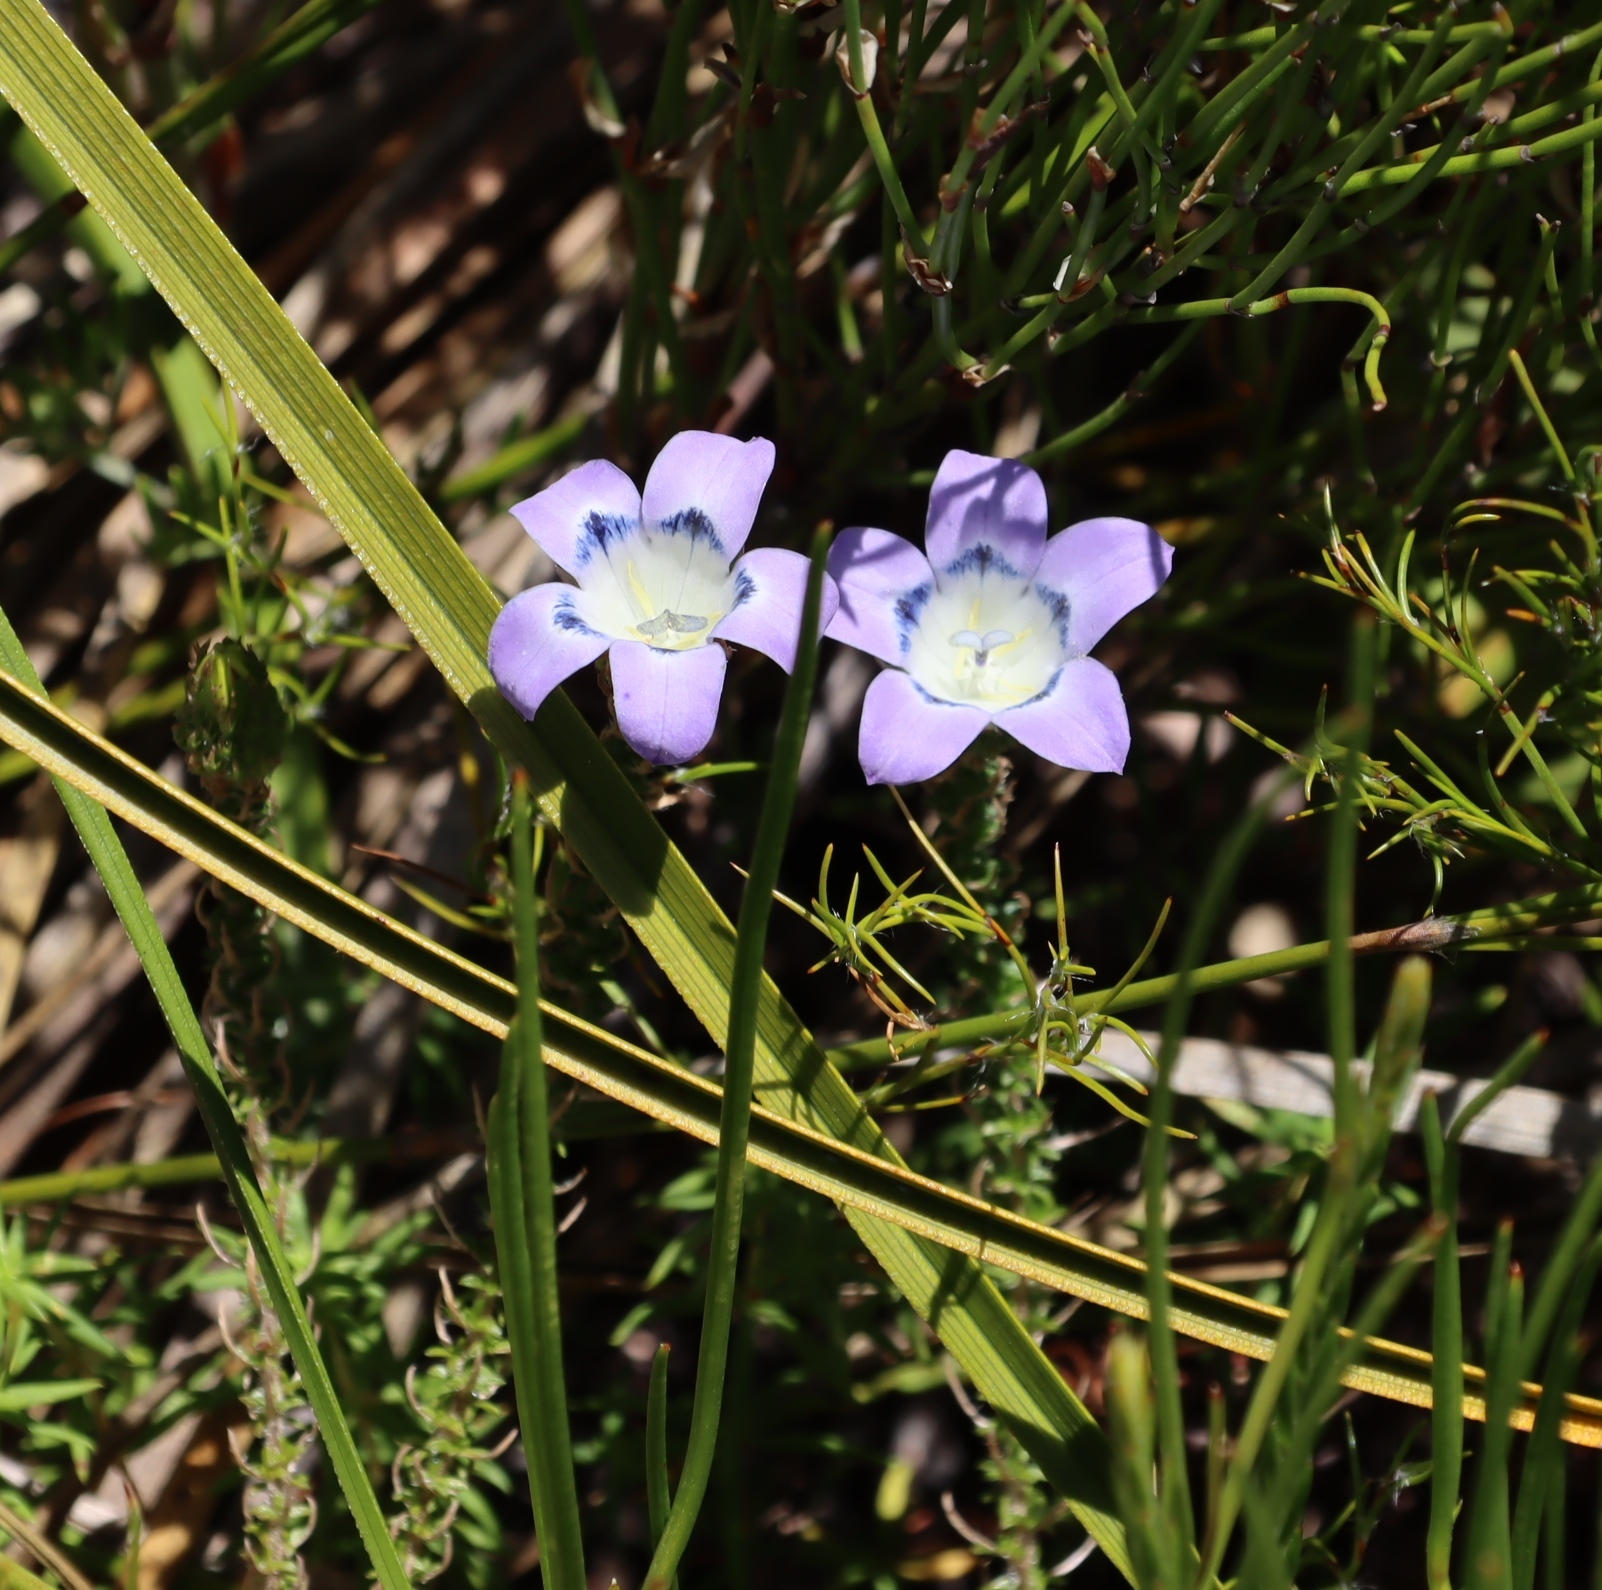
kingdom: Plantae
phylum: Tracheophyta
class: Magnoliopsida
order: Asterales
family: Campanulaceae
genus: Roella
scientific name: Roella incurva
